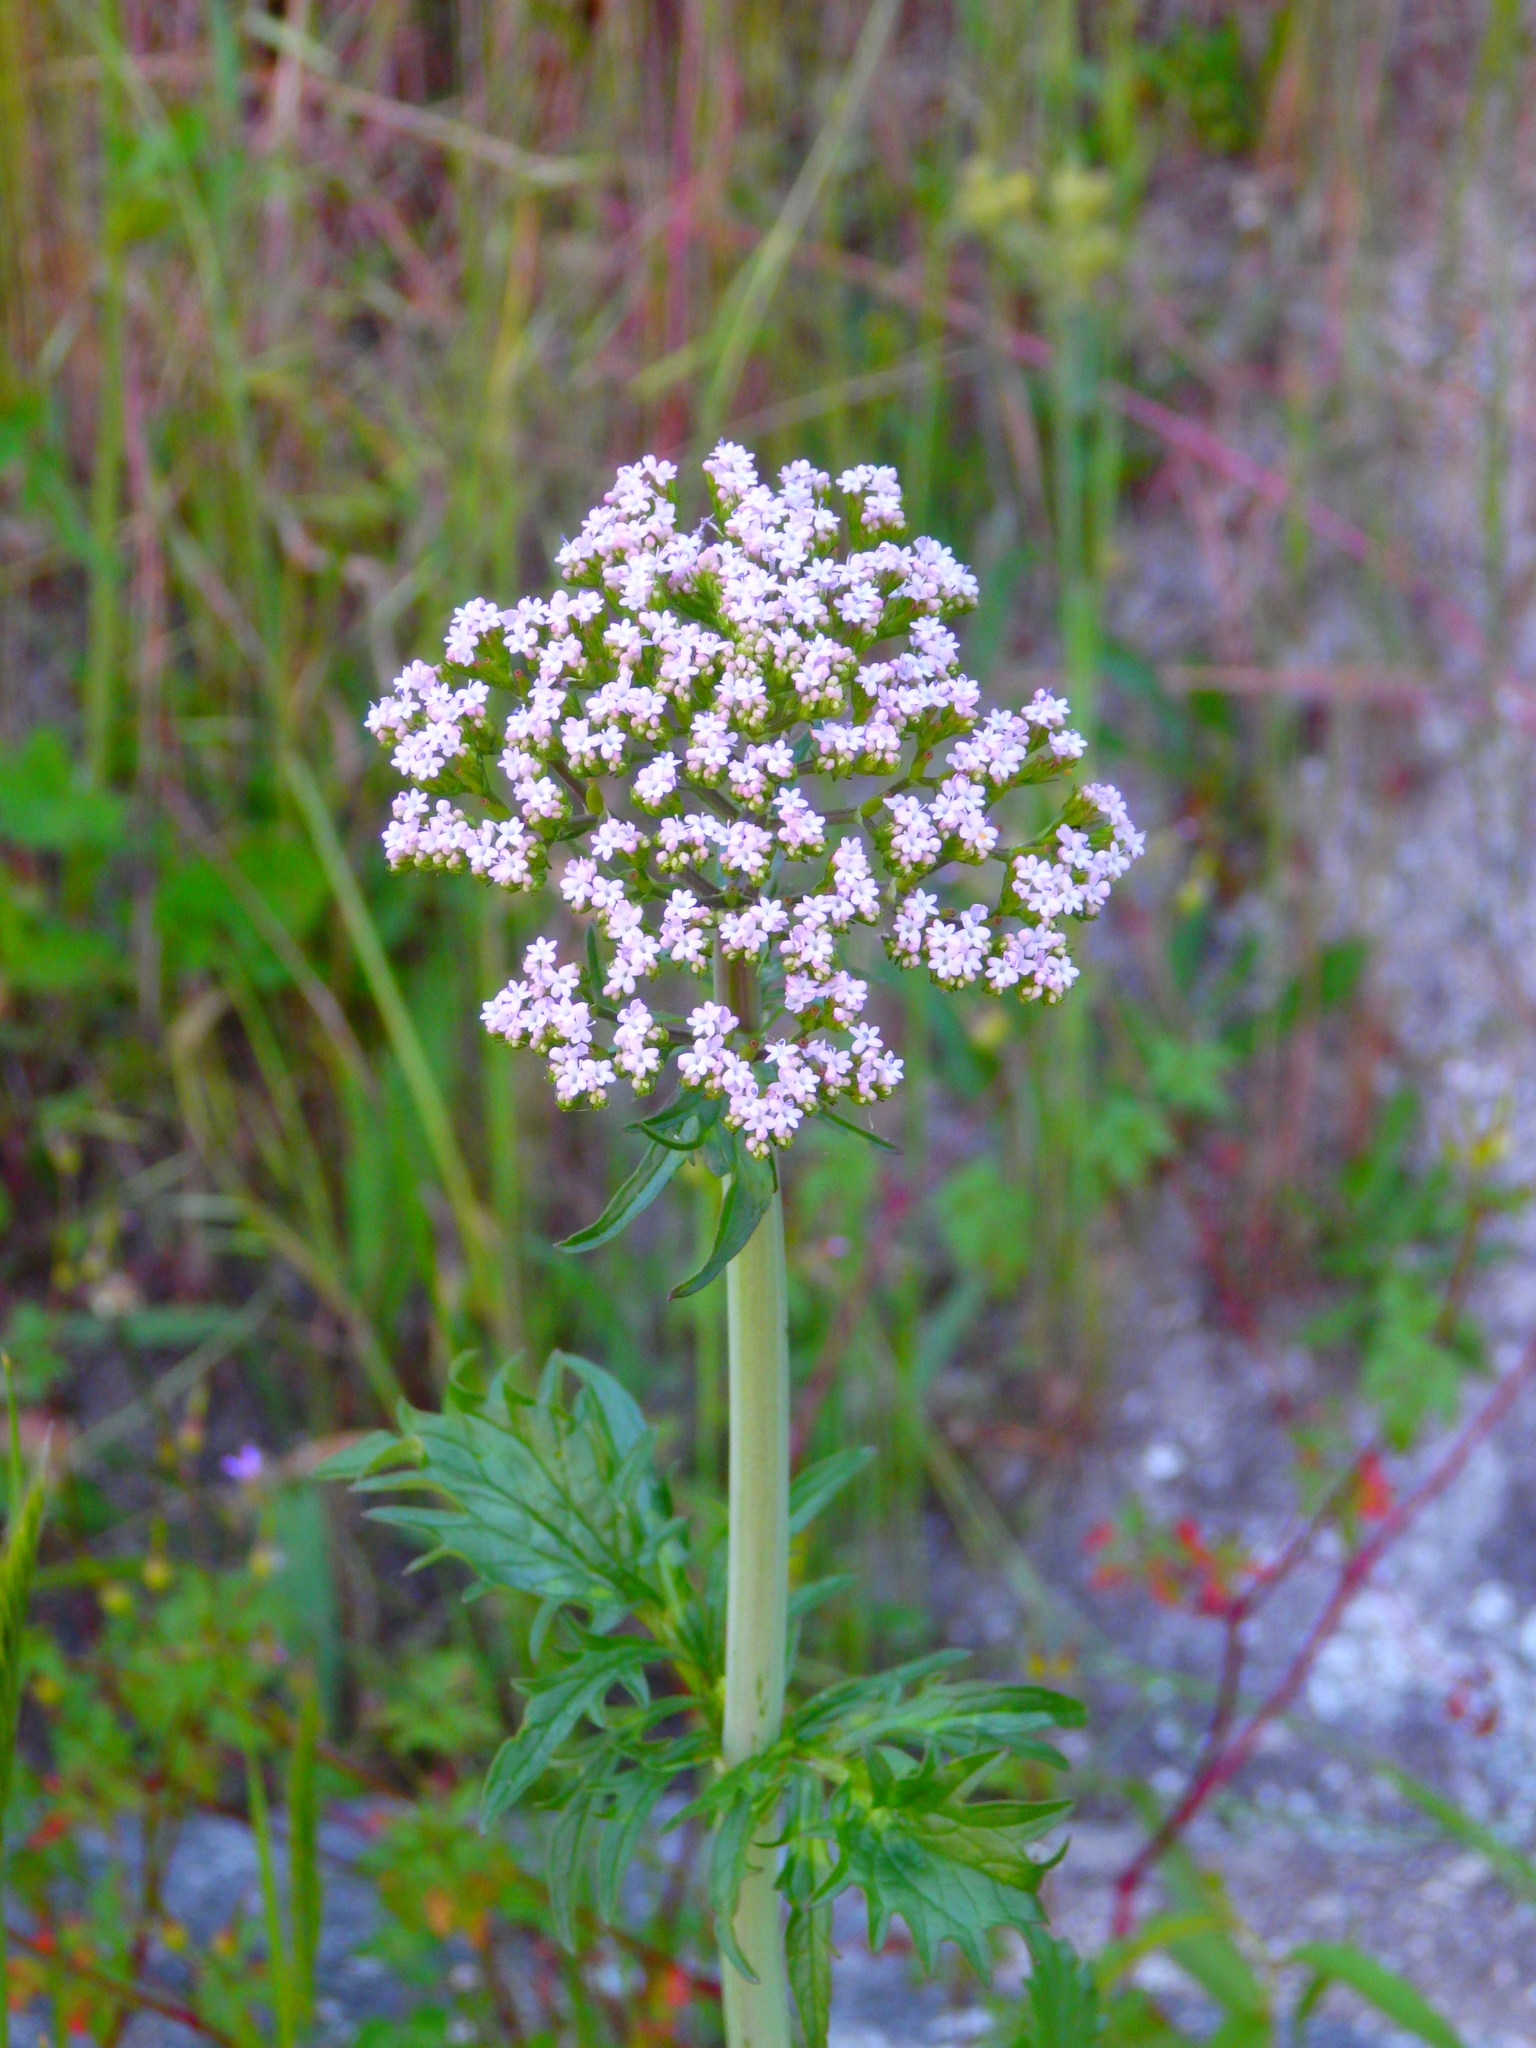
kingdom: Plantae
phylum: Tracheophyta
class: Magnoliopsida
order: Dipsacales
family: Caprifoliaceae
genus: Centranthus
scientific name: Centranthus calcitrapae
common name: Annual valerian
